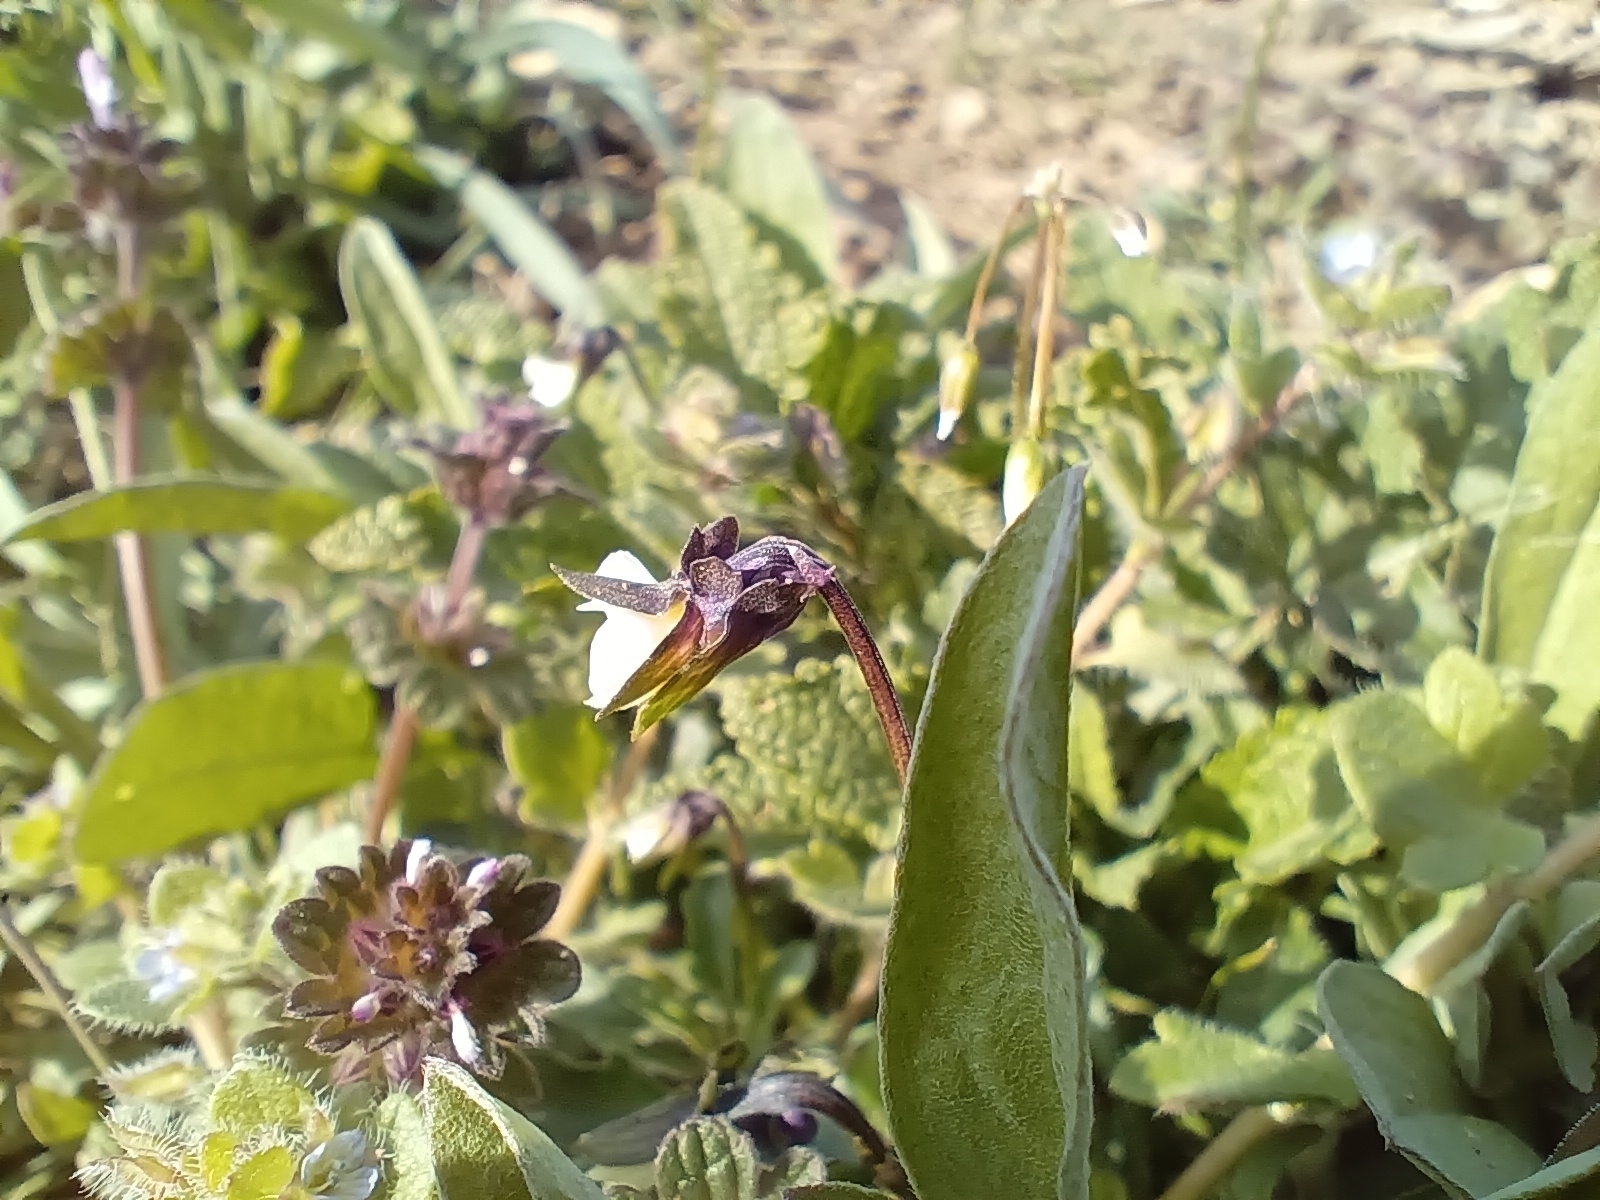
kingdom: Plantae
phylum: Tracheophyta
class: Magnoliopsida
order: Malpighiales
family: Violaceae
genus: Viola
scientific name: Viola arvensis
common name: Field pansy
